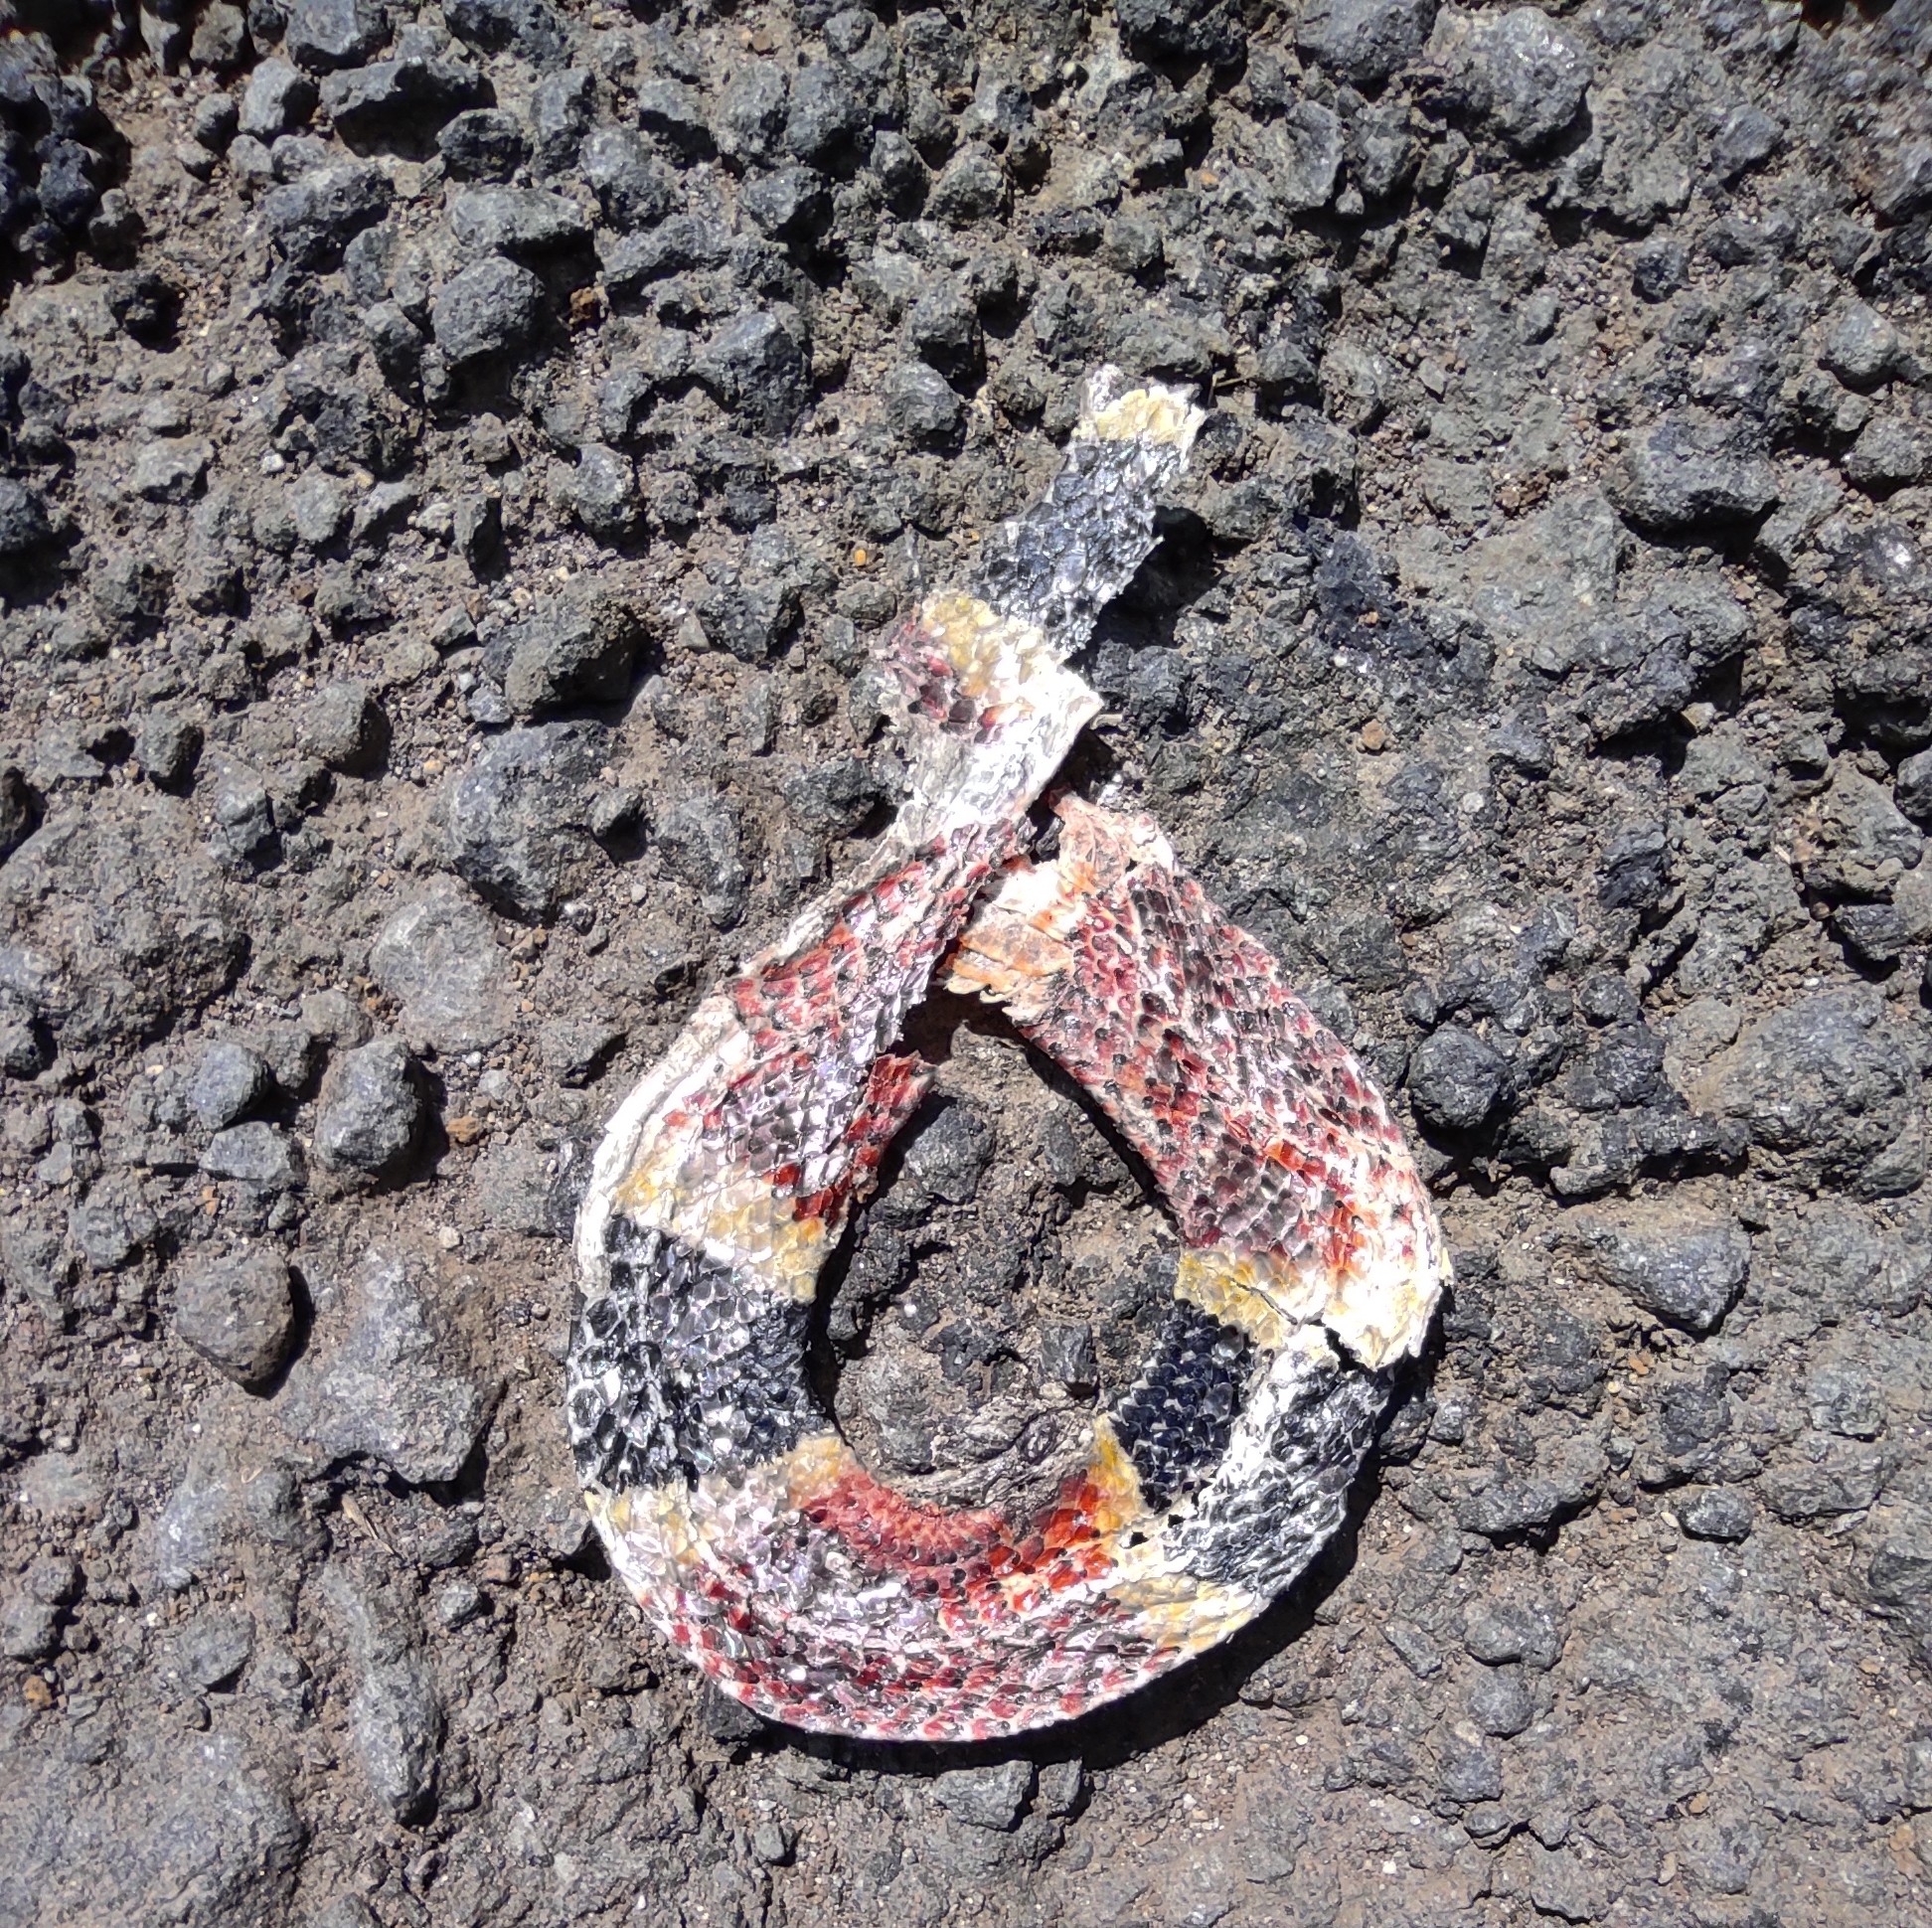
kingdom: Animalia
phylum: Chordata
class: Squamata
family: Elapidae
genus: Micrurus
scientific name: Micrurus mosquitensis
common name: Misquito coral snake
